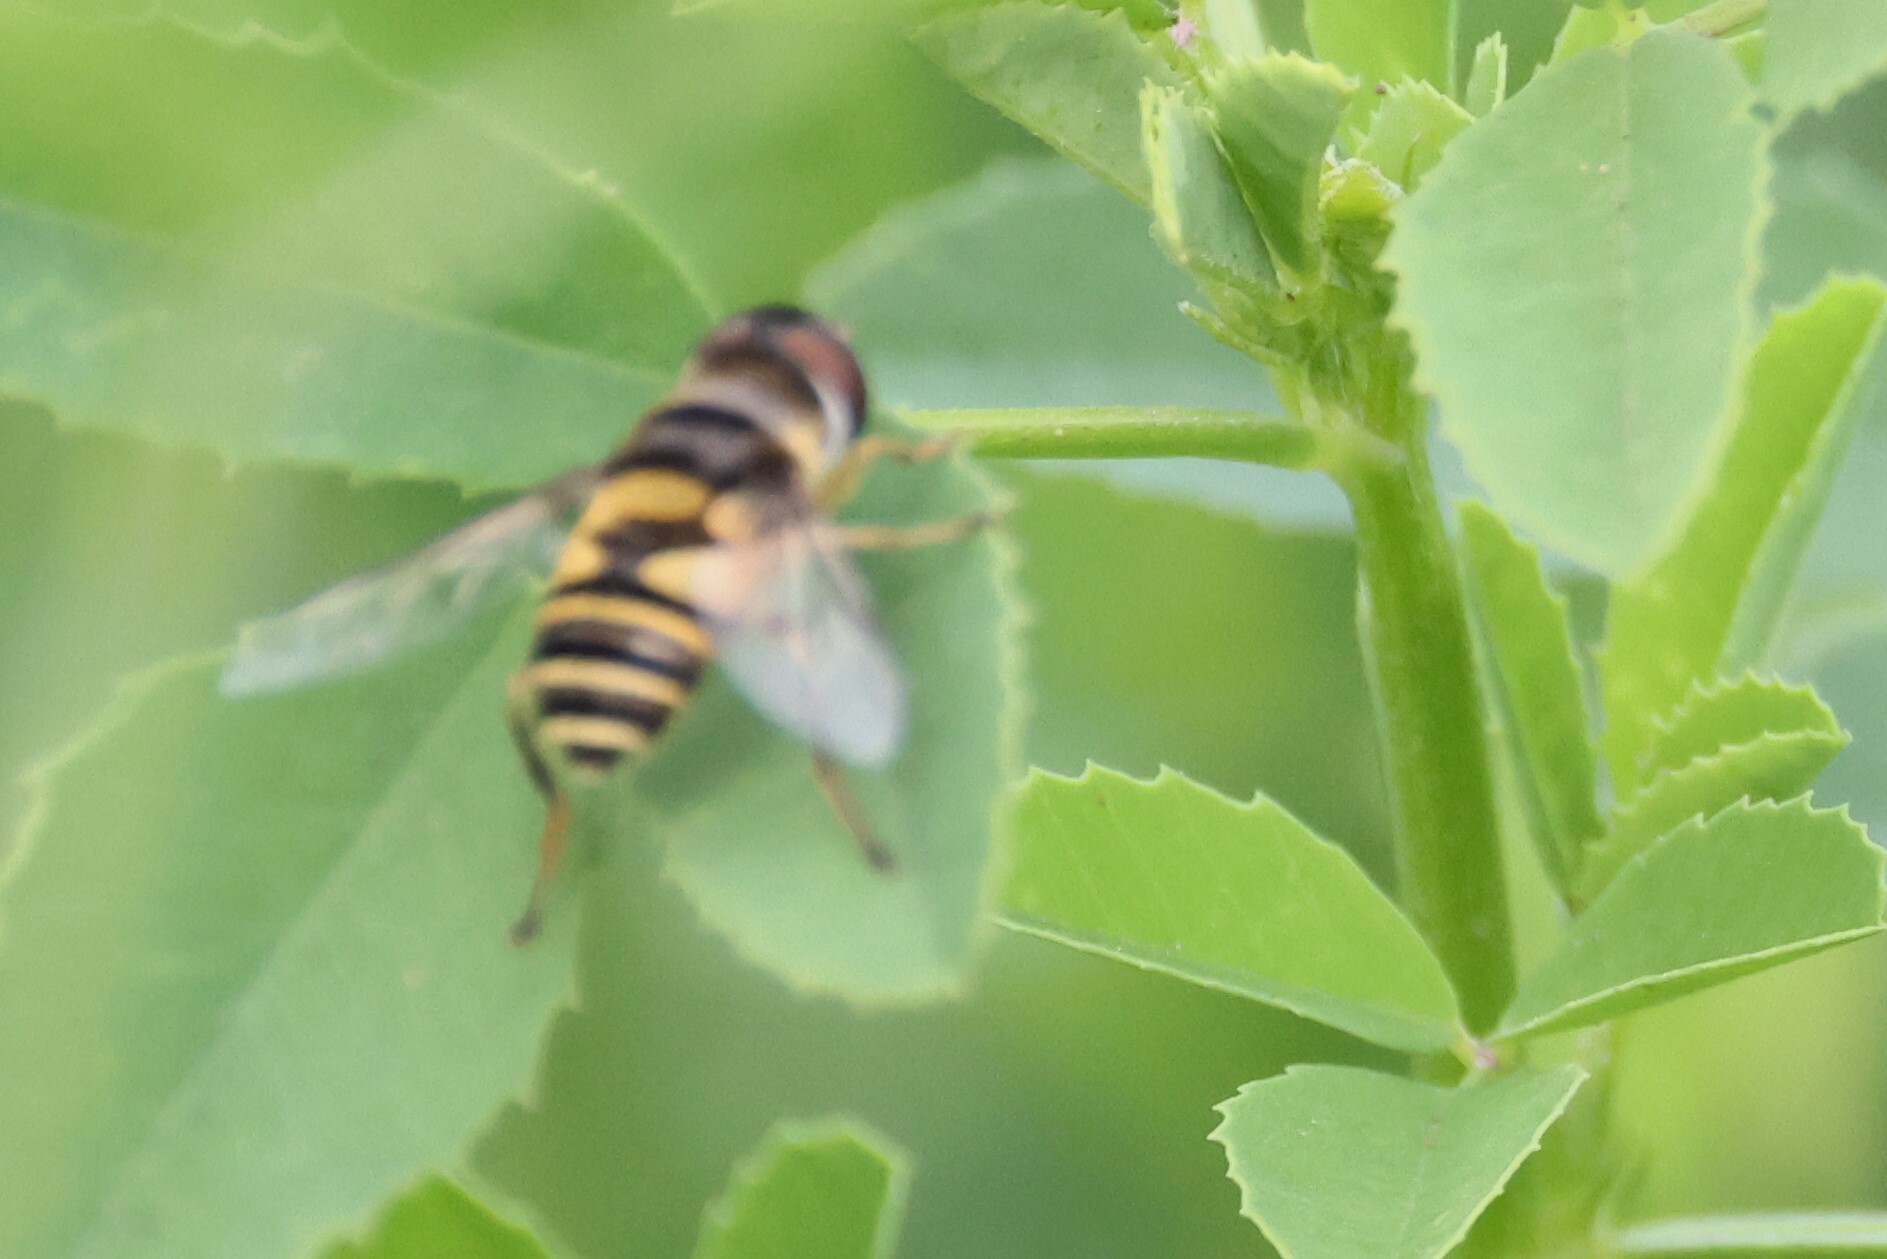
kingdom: Animalia
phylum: Arthropoda
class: Insecta
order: Diptera
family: Syrphidae
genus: Eristalis
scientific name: Eristalis transversa
